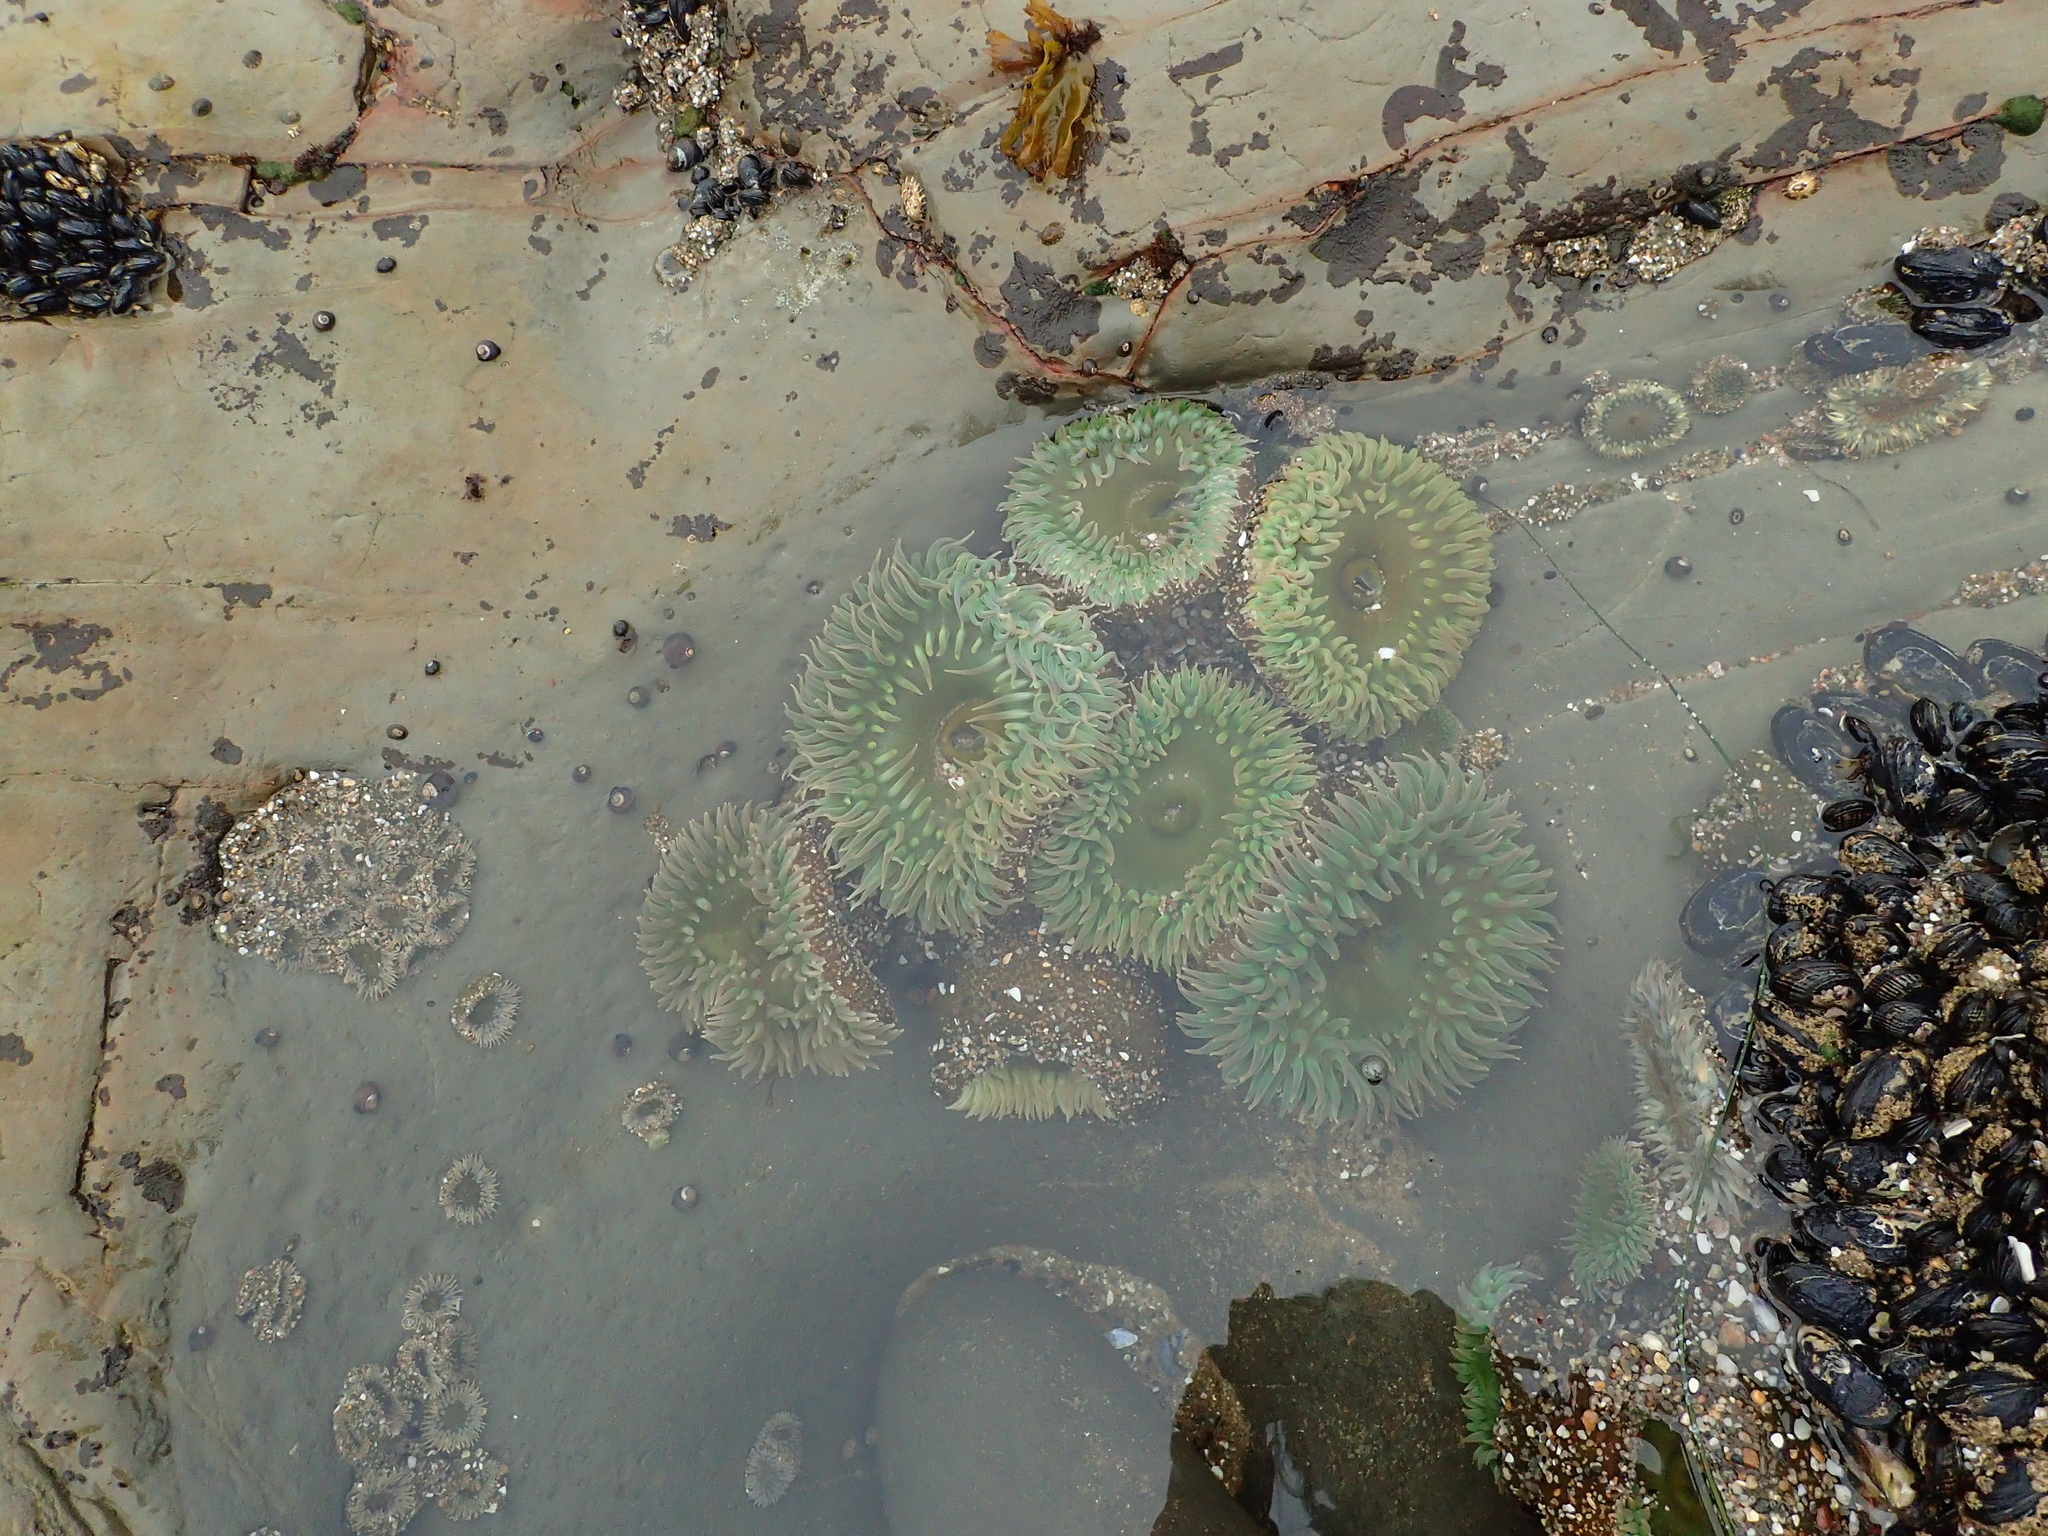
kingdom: Animalia
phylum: Cnidaria
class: Anthozoa
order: Actiniaria
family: Actiniidae
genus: Anthopleura
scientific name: Anthopleura xanthogrammica
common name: Giant green anemone
